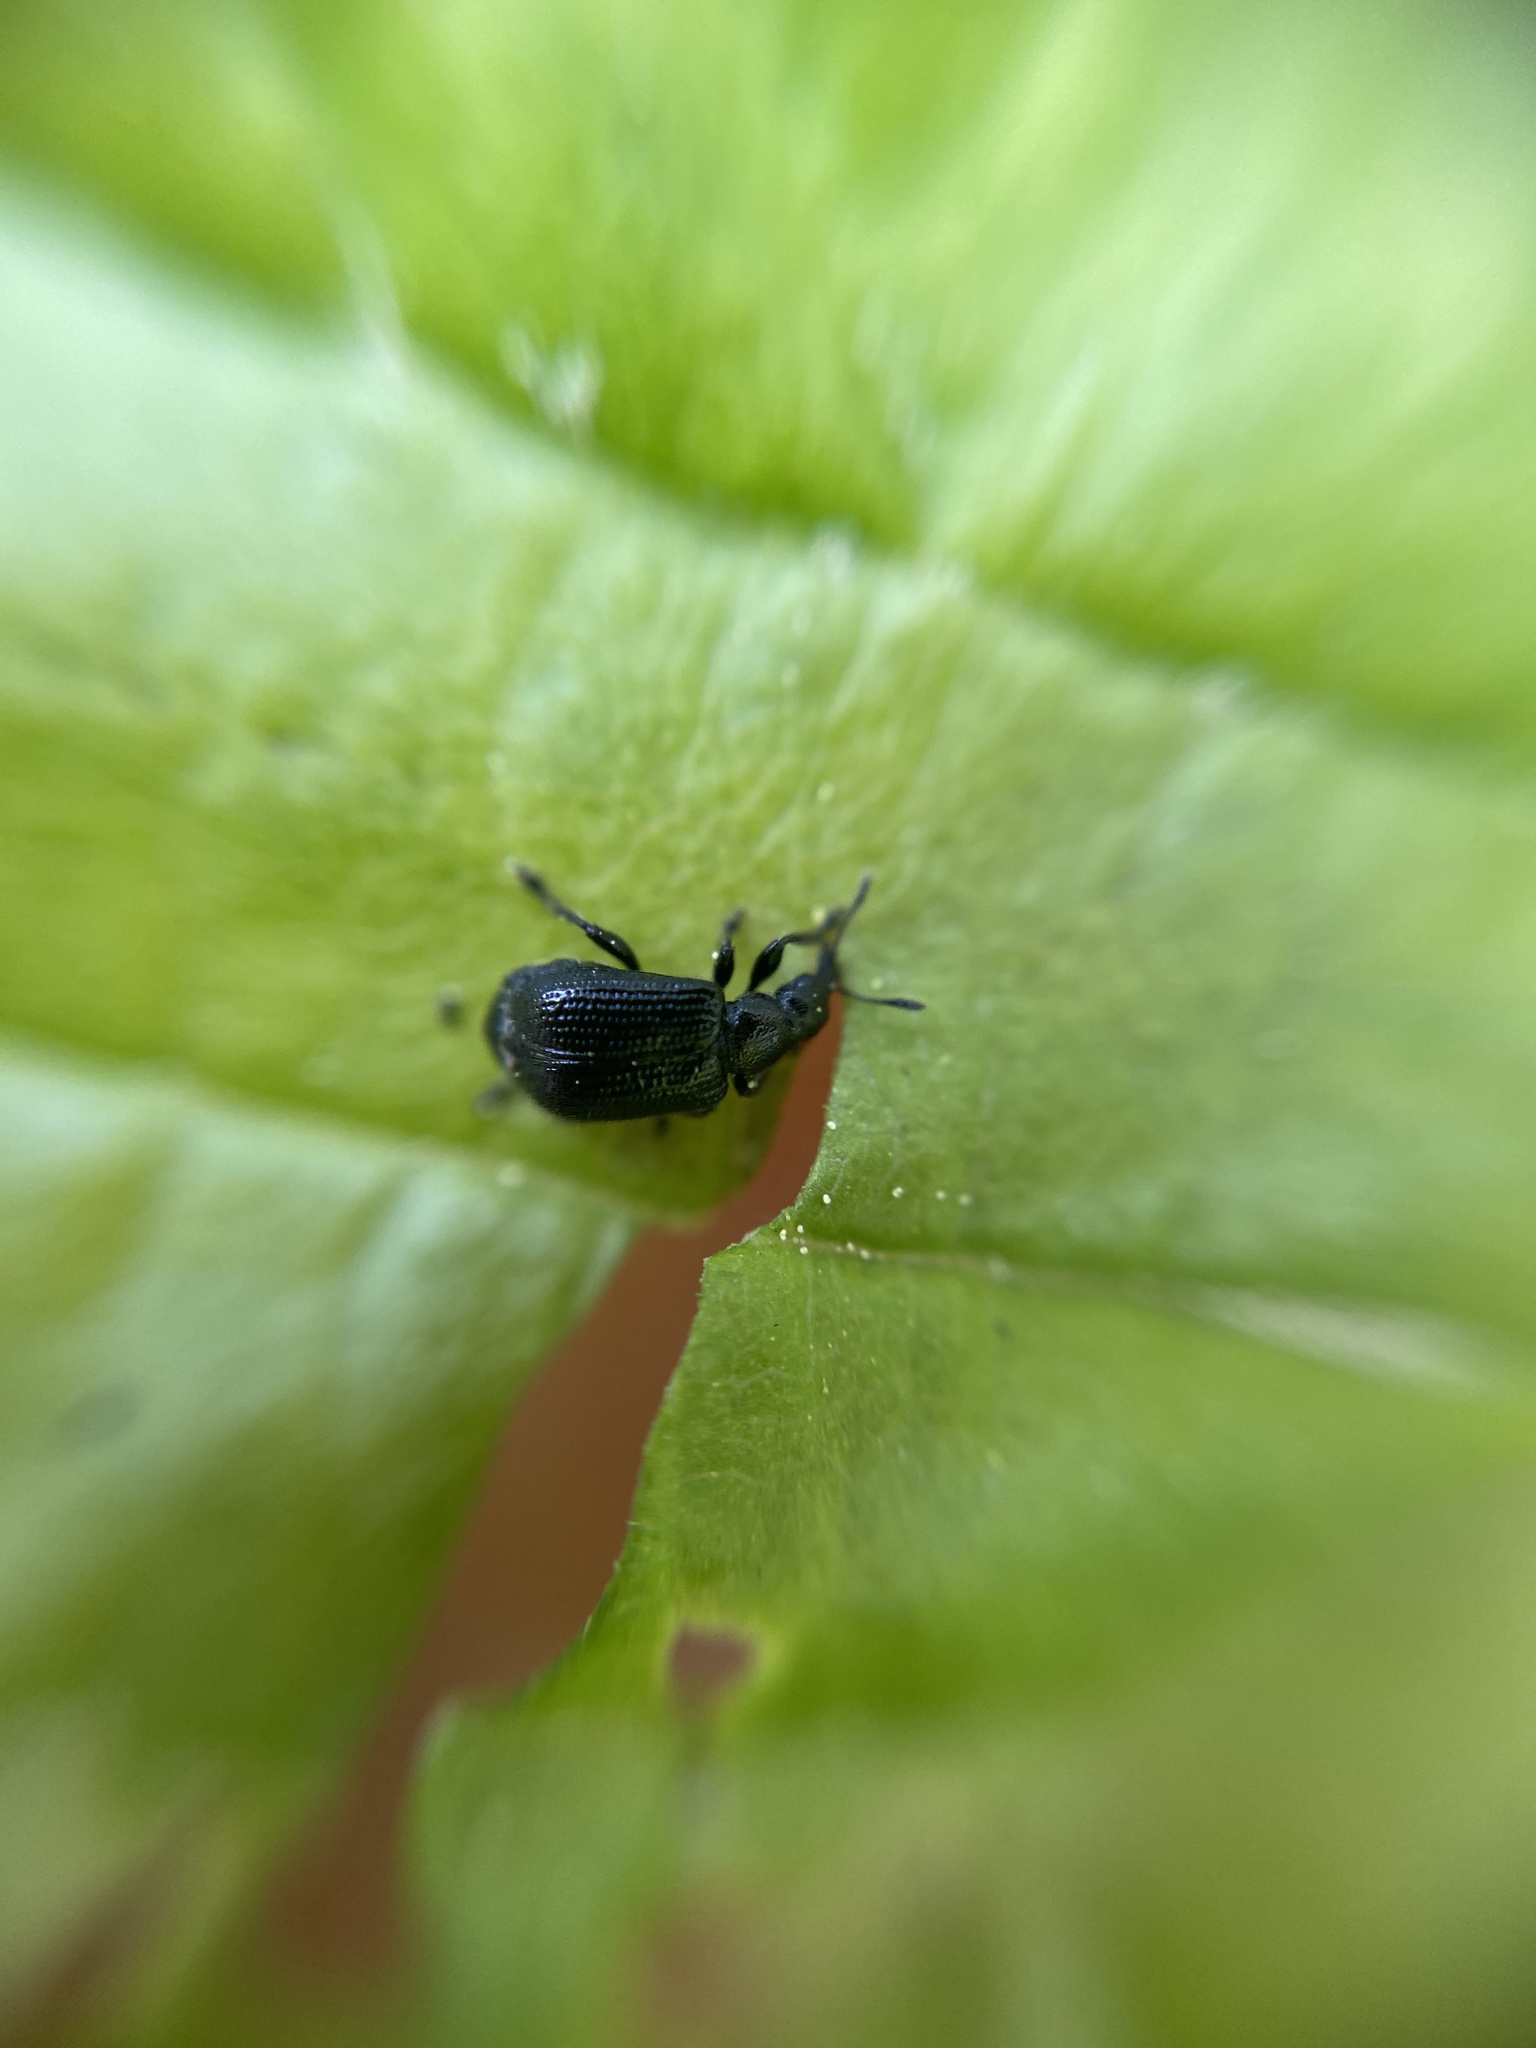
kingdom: Animalia
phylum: Arthropoda
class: Insecta
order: Coleoptera
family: Attelabidae
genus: Deporaus
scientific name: Deporaus betulae
